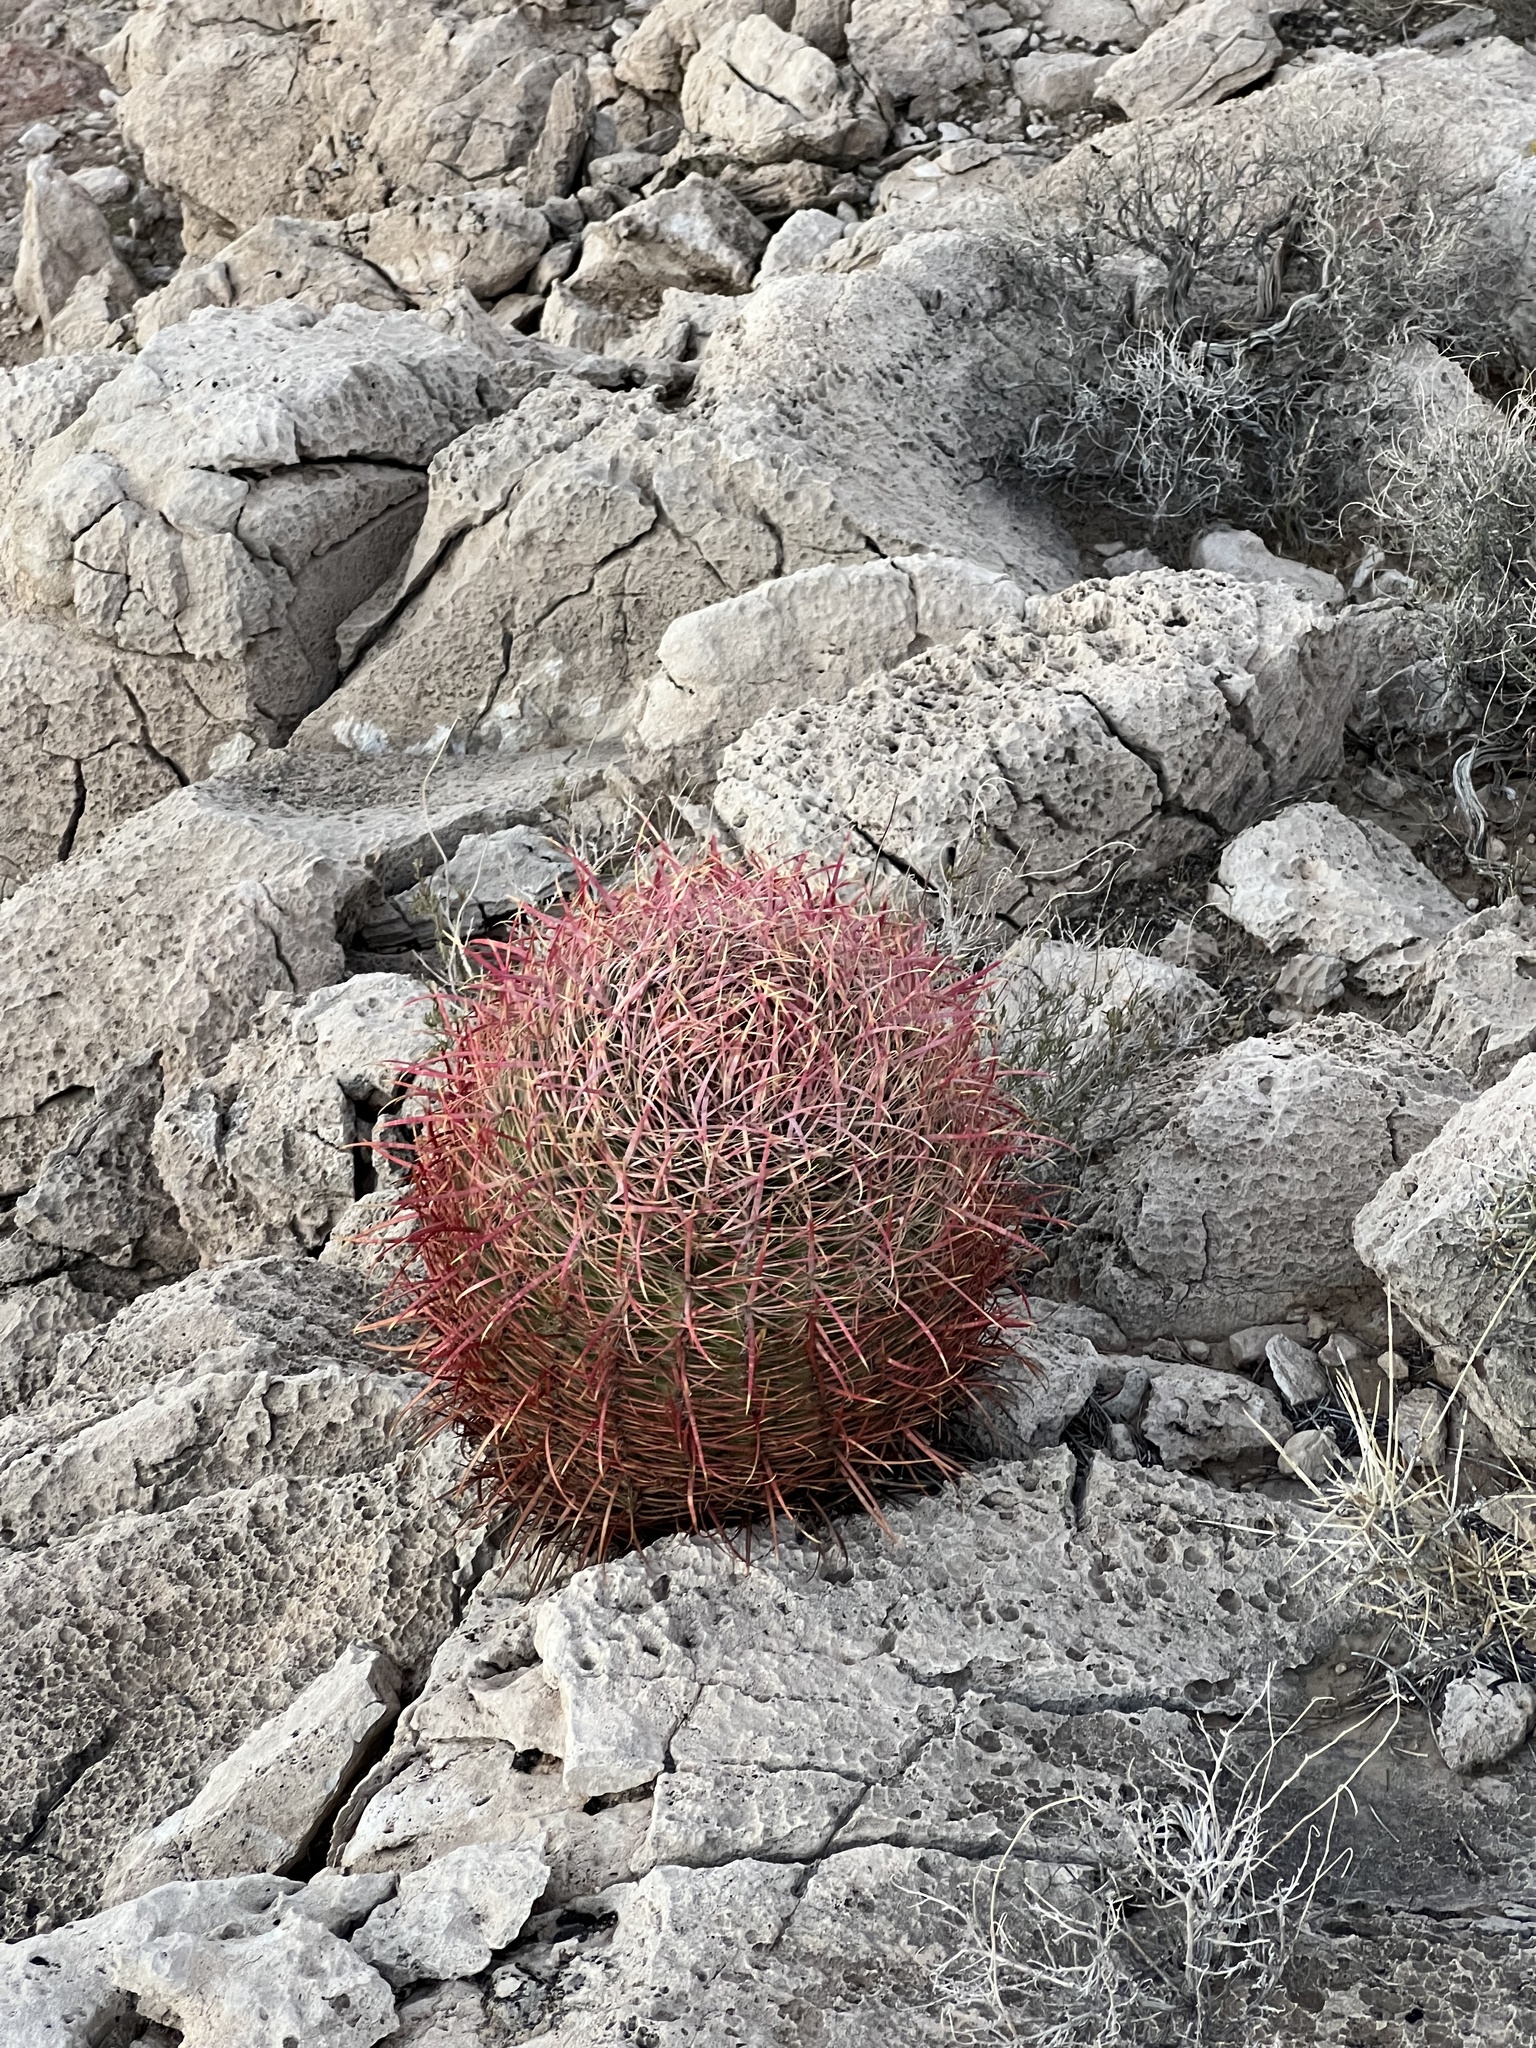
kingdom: Plantae
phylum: Tracheophyta
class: Magnoliopsida
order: Caryophyllales
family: Cactaceae
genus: Ferocactus
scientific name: Ferocactus cylindraceus
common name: California barrel cactus
